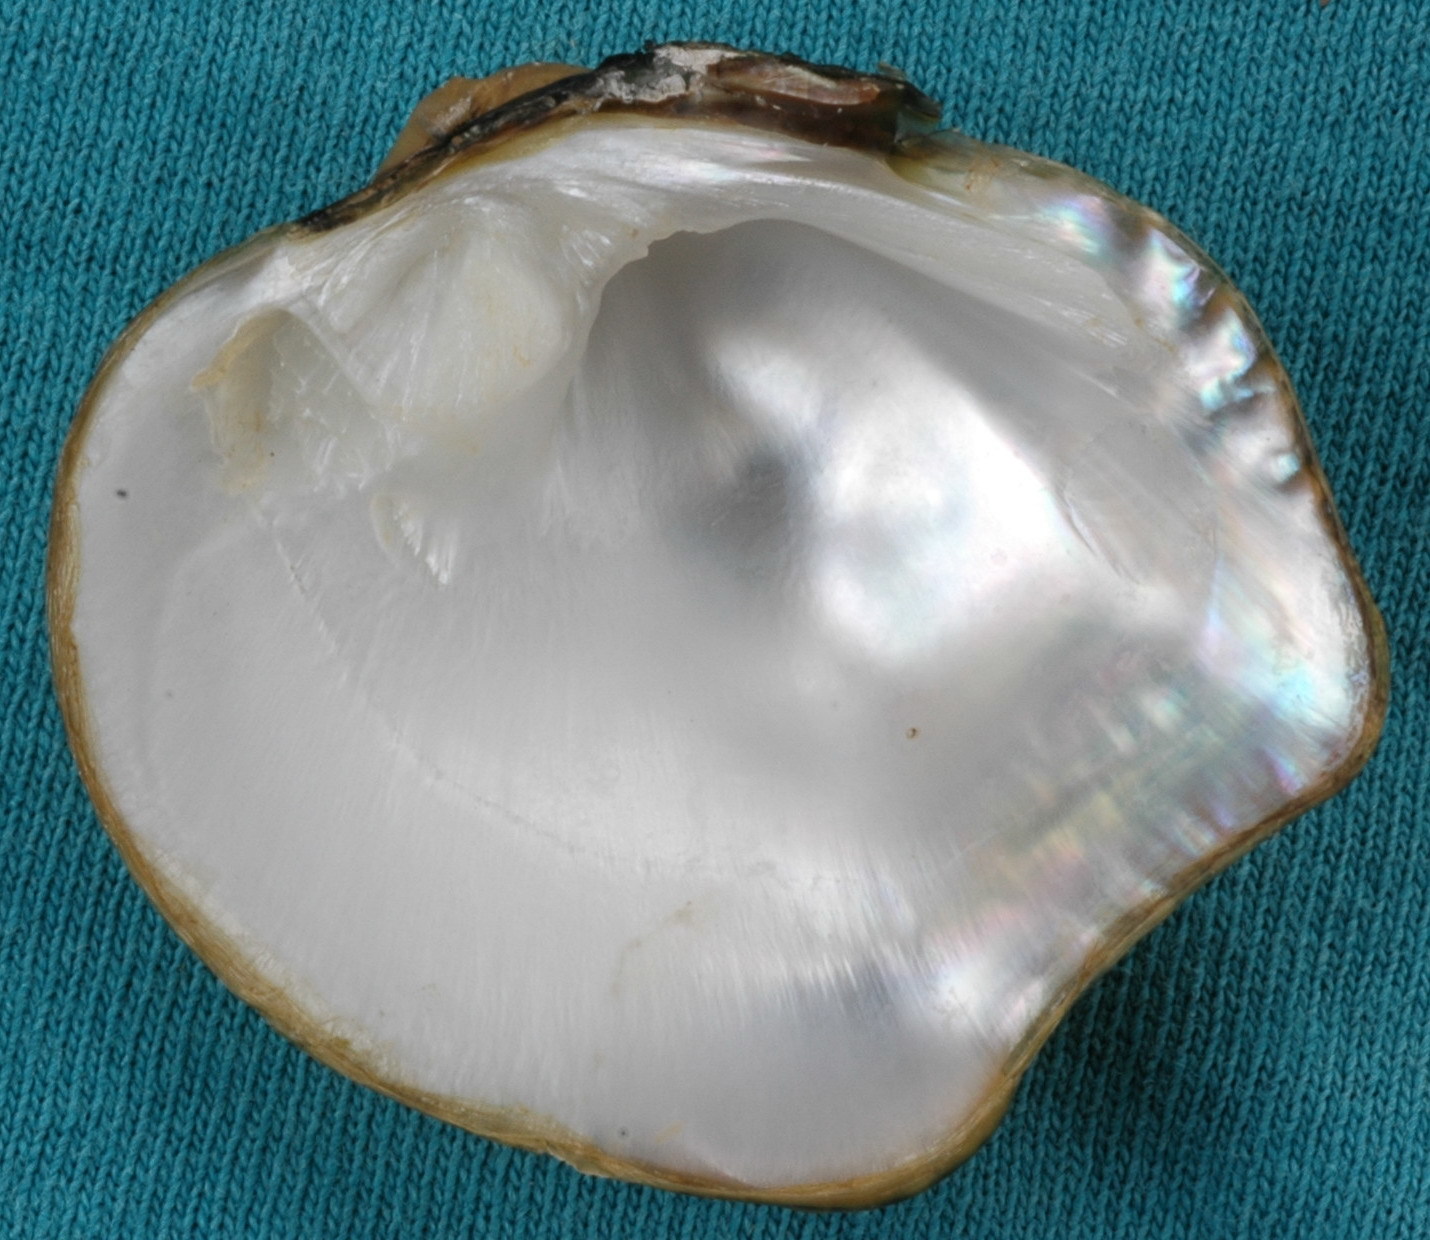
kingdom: Animalia
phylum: Mollusca
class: Bivalvia
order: Unionida
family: Unionidae
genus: Obliquaria
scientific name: Obliquaria reflexa
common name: Threehorn wartyback
